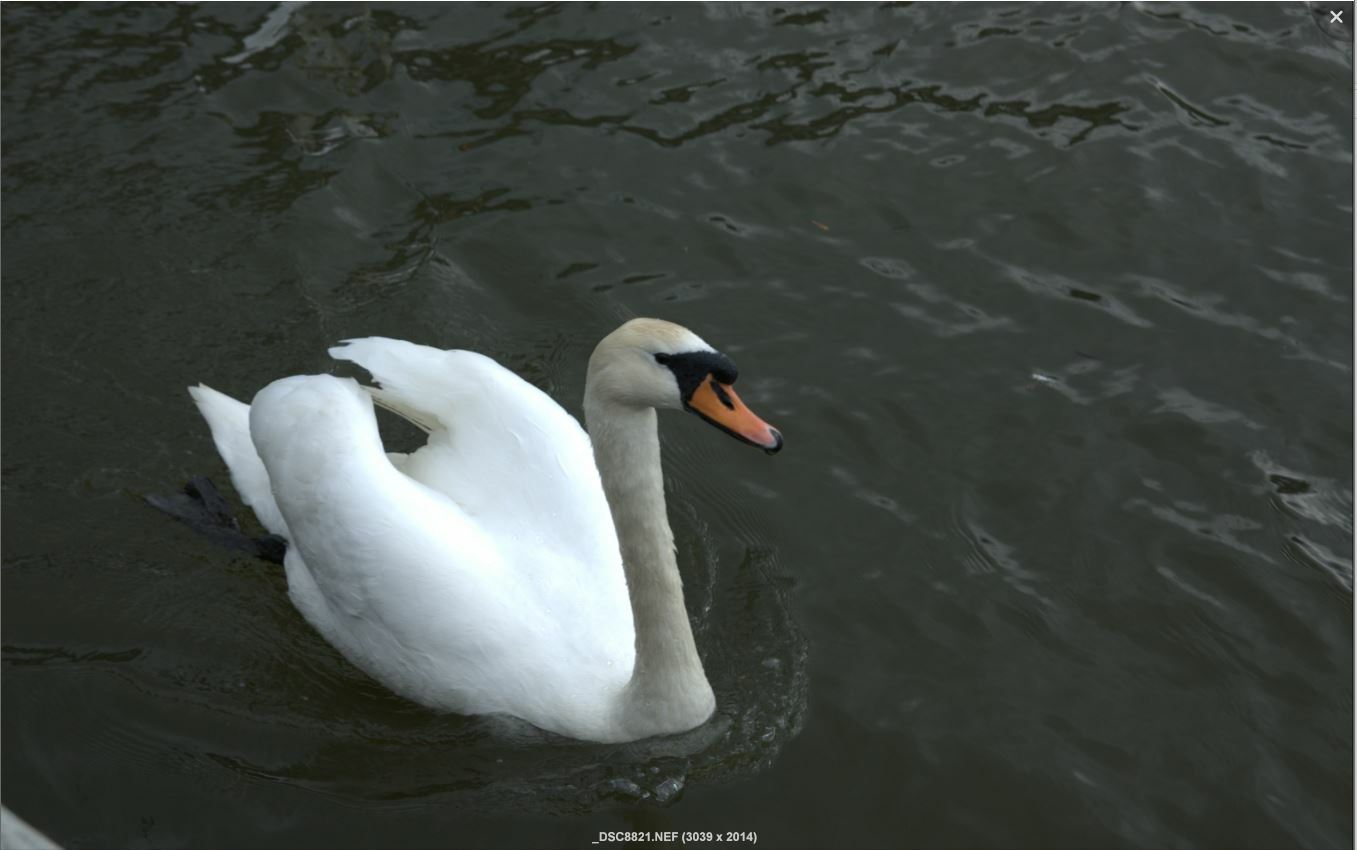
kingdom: Animalia
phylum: Chordata
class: Aves
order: Anseriformes
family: Anatidae
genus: Cygnus
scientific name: Cygnus olor
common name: Mute swan
